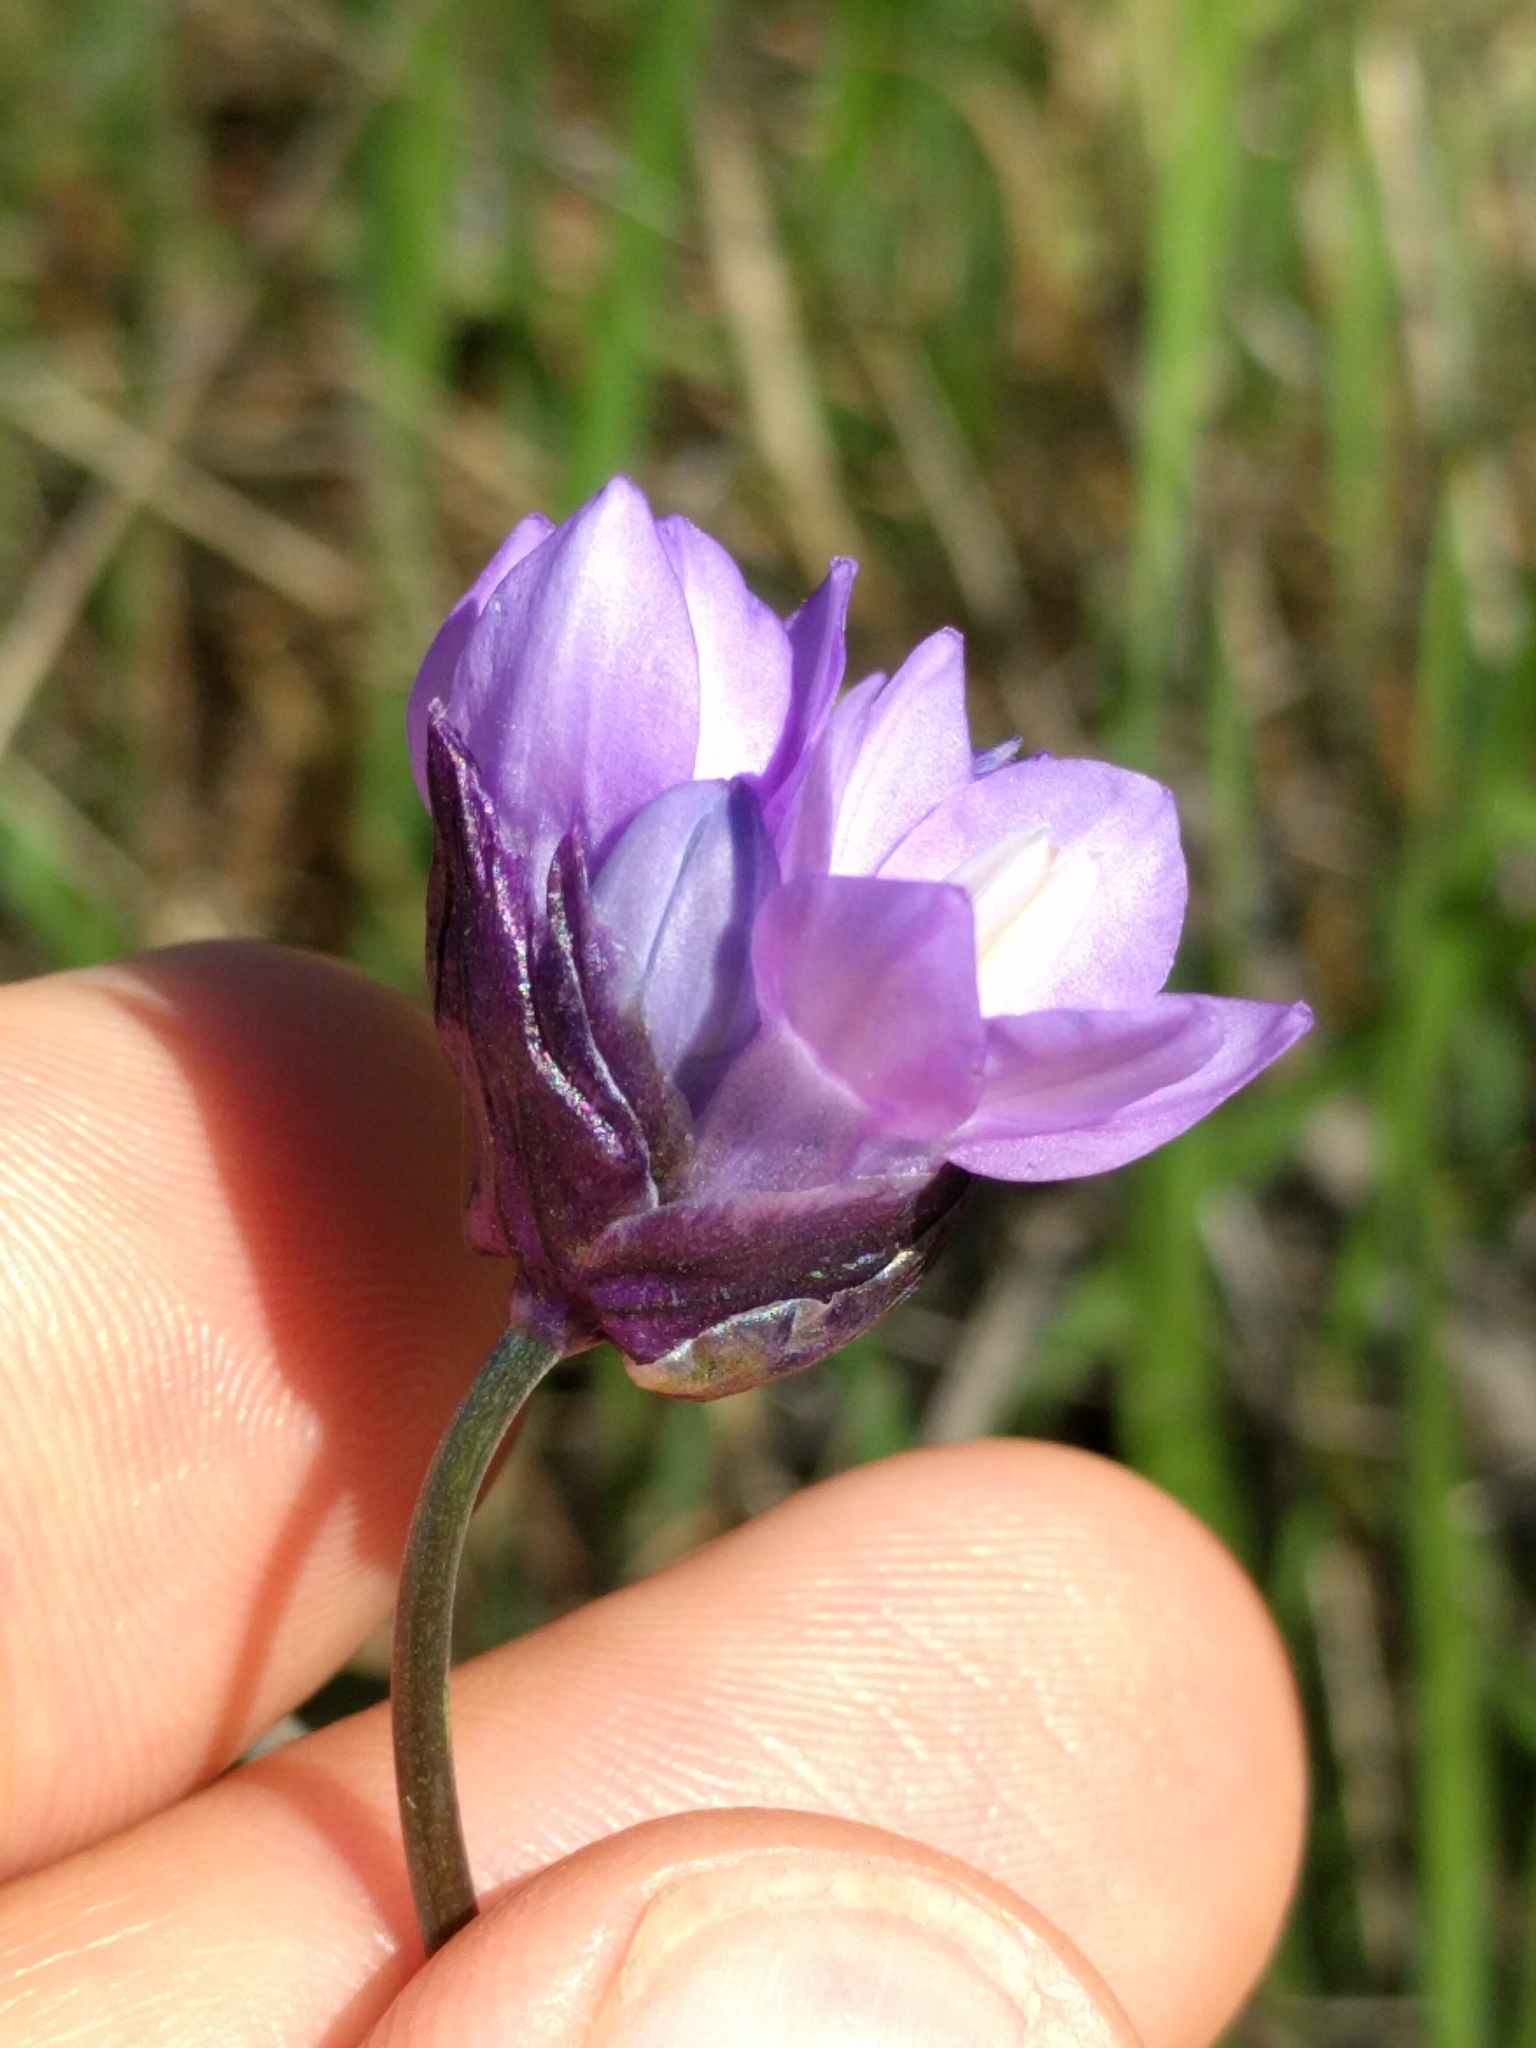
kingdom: Plantae
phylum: Tracheophyta
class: Liliopsida
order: Asparagales
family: Asparagaceae
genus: Dipterostemon
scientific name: Dipterostemon capitatus
